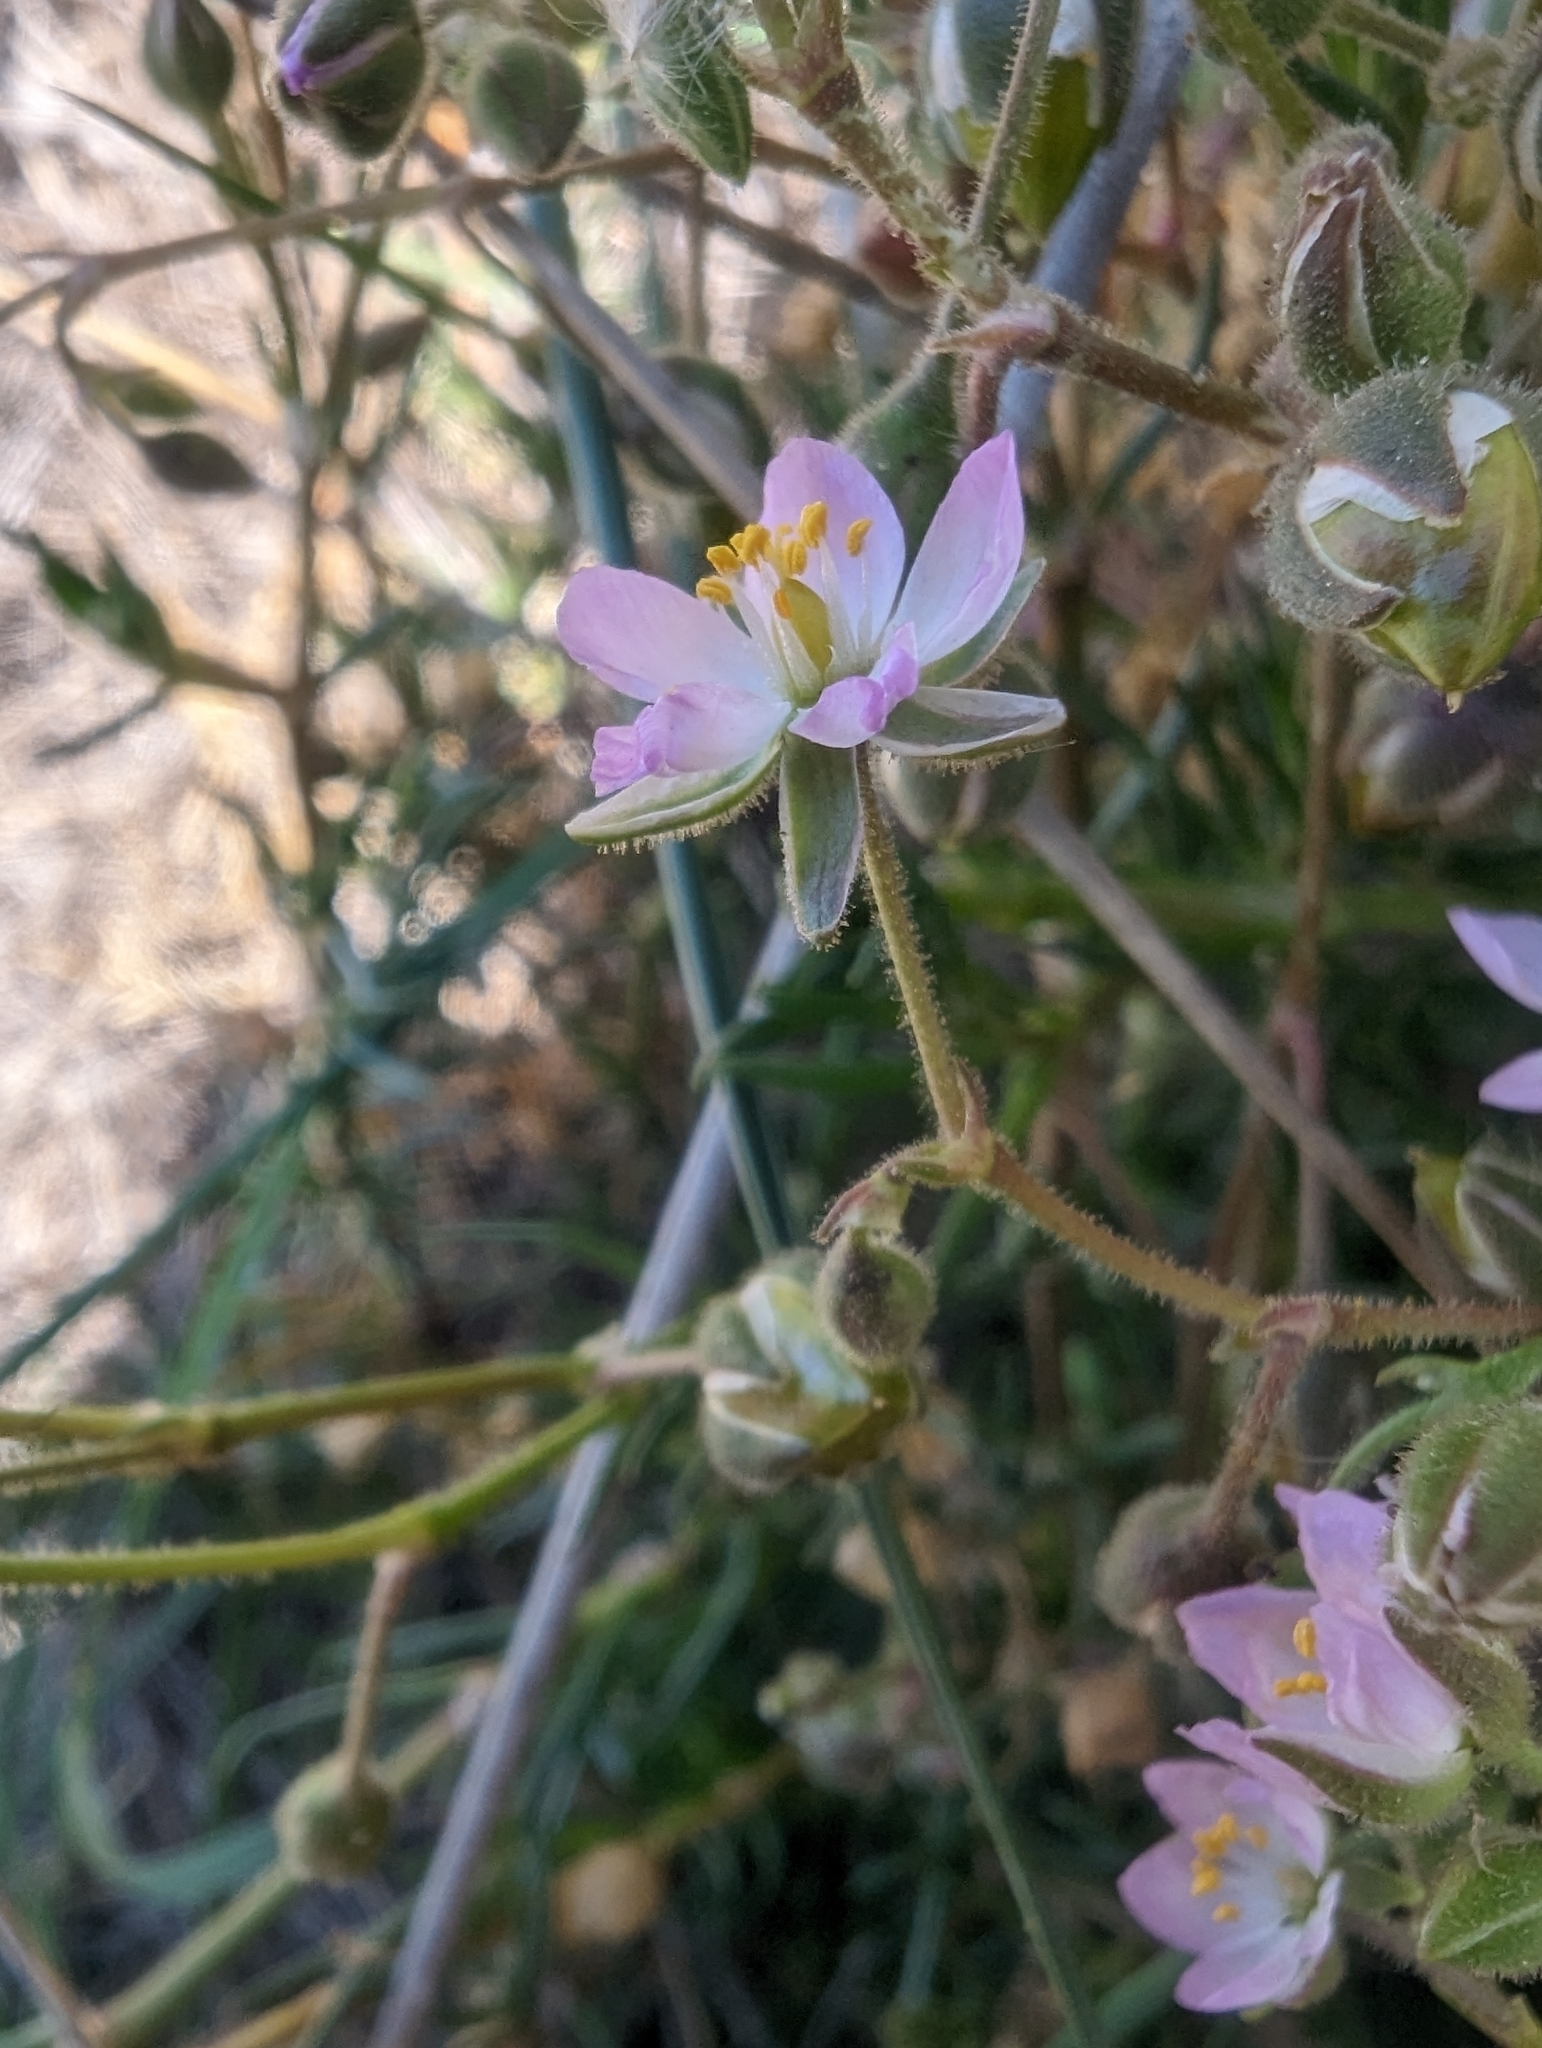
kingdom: Plantae
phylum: Tracheophyta
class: Magnoliopsida
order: Caryophyllales
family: Caryophyllaceae
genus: Spergularia
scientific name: Spergularia media
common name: Greater sea-spurrey
